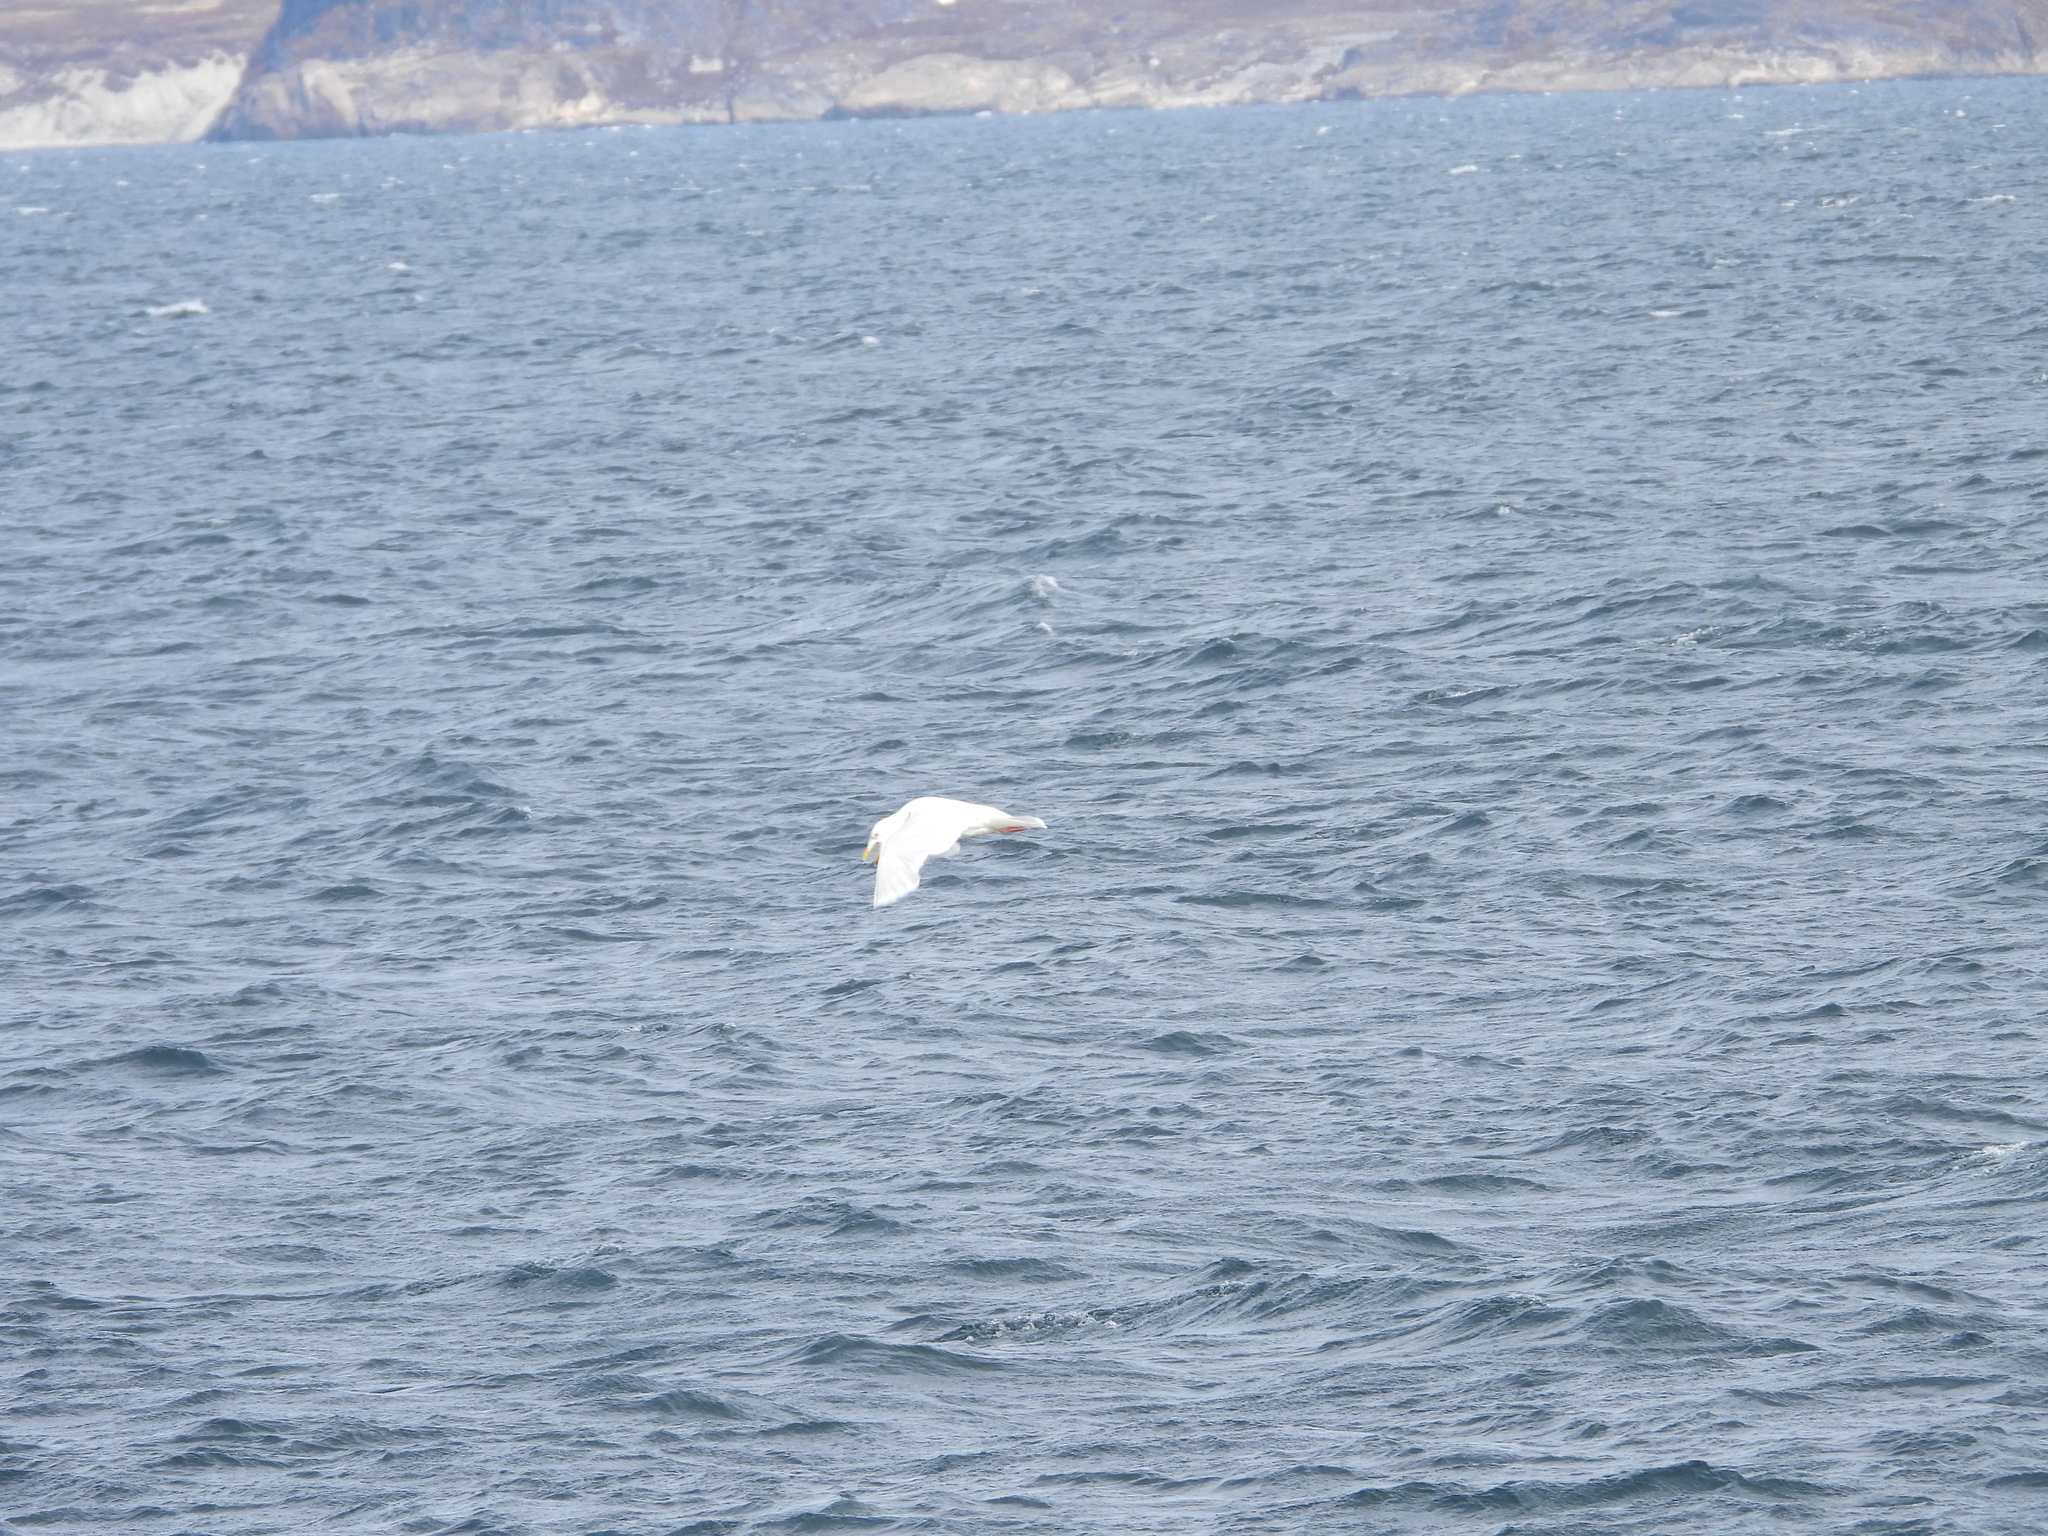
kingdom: Animalia
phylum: Chordata
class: Aves
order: Charadriiformes
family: Laridae
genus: Larus
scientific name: Larus hyperboreus
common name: Glaucous gull
